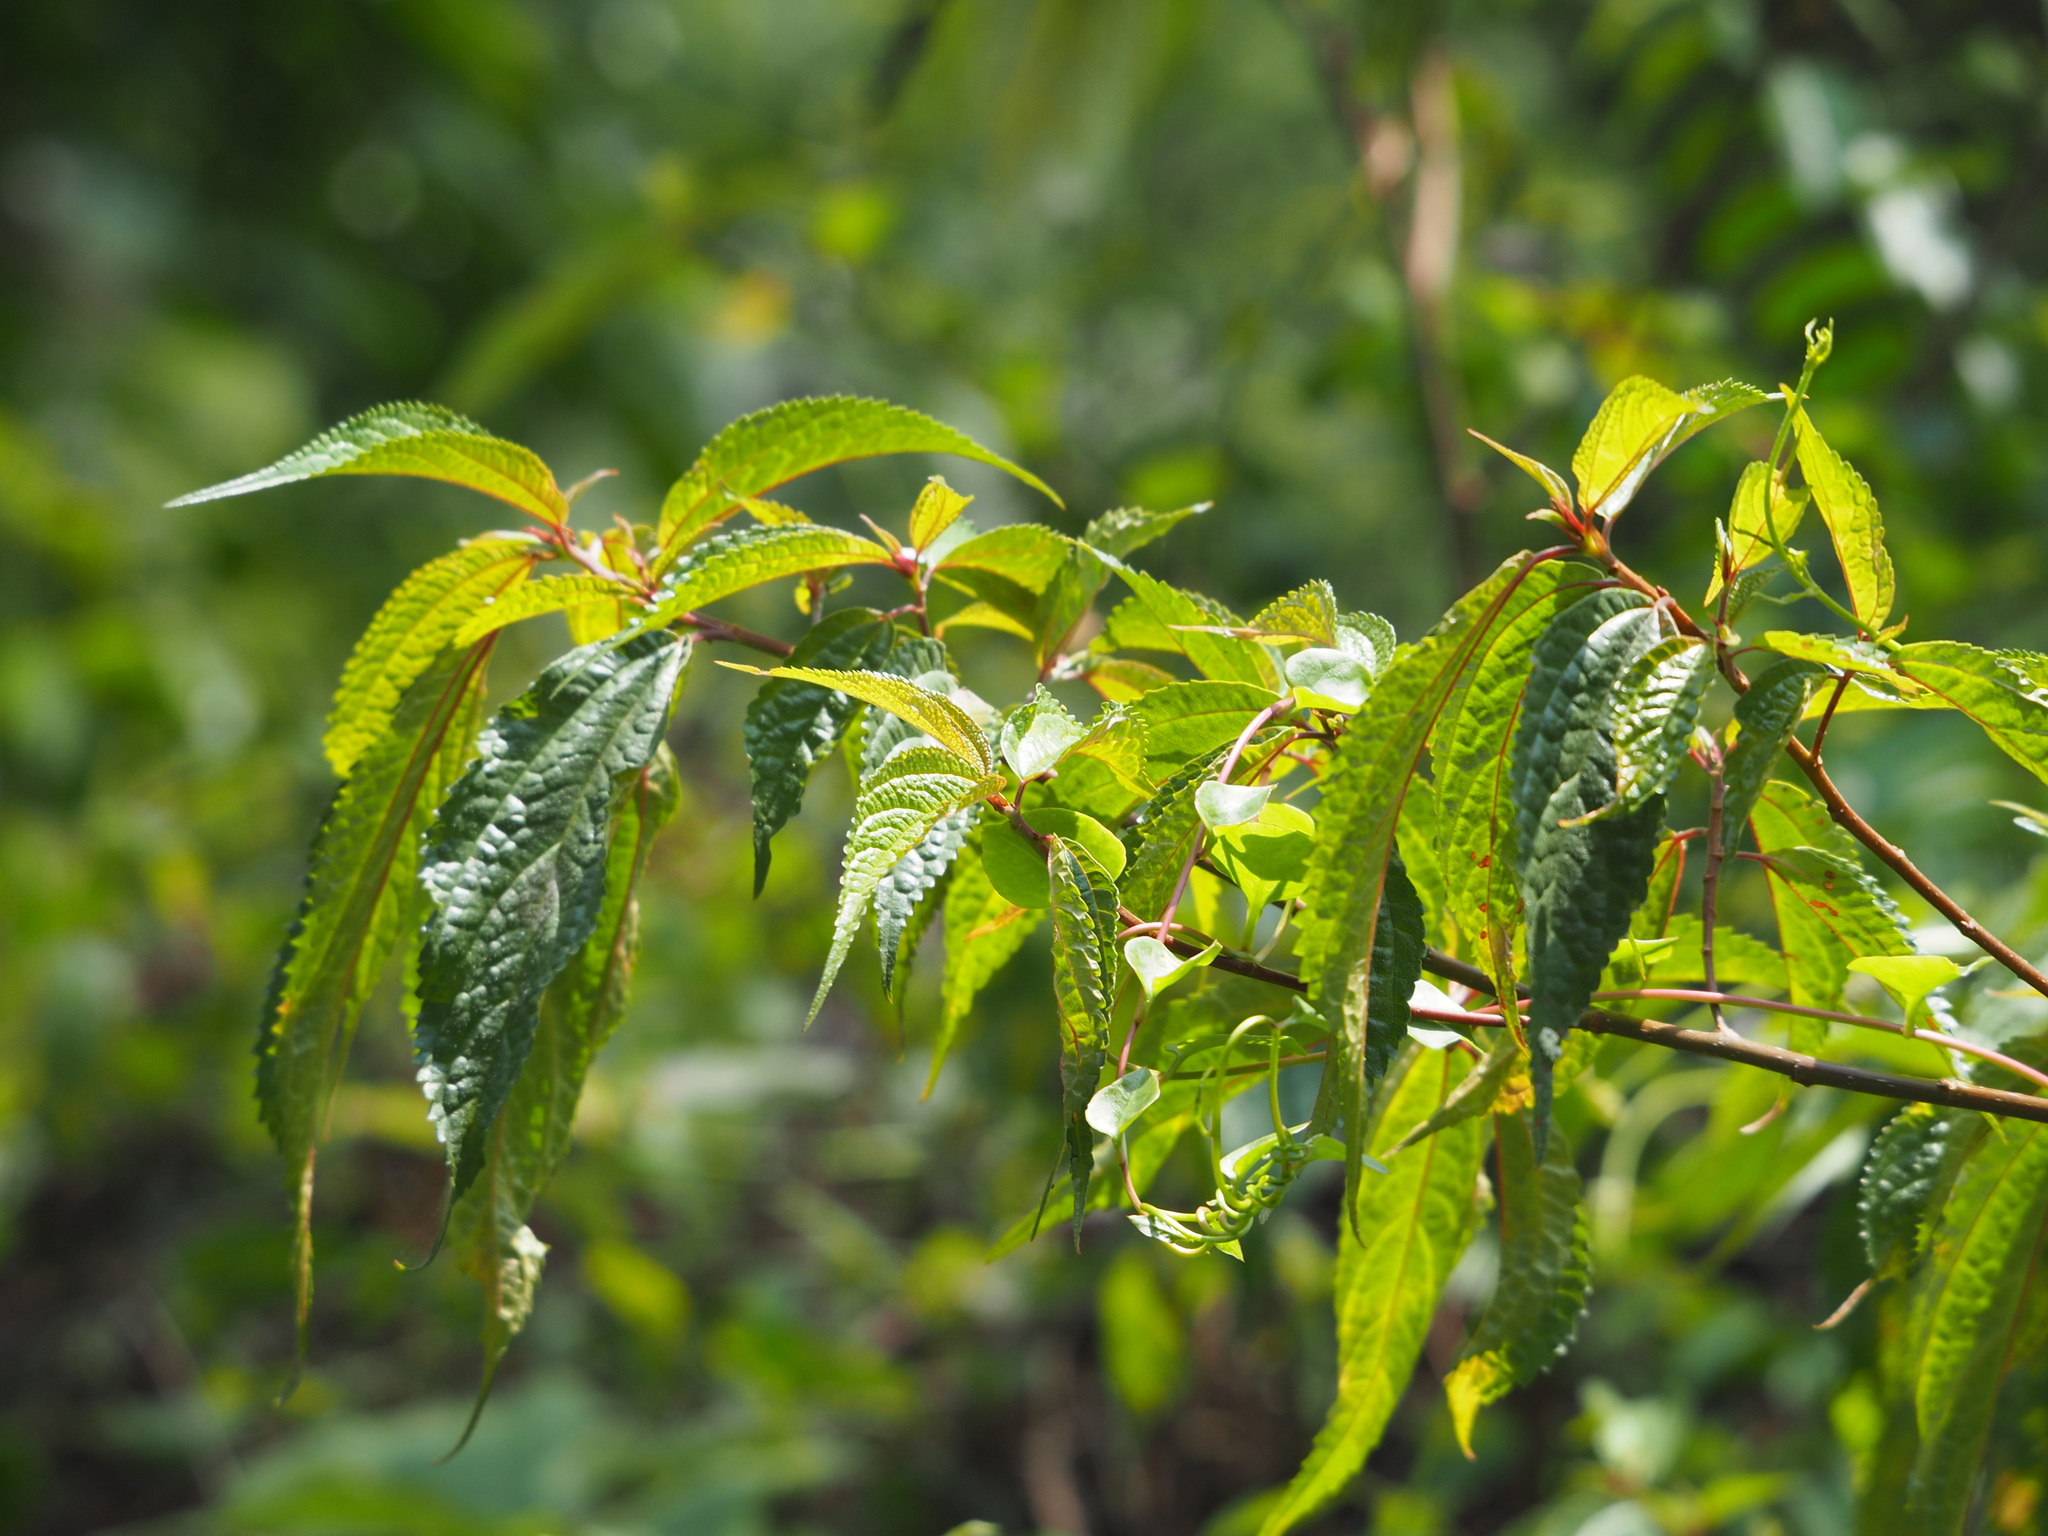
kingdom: Plantae
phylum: Tracheophyta
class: Magnoliopsida
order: Rosales
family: Urticaceae
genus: Oreocnide
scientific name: Oreocnide pedunculata
